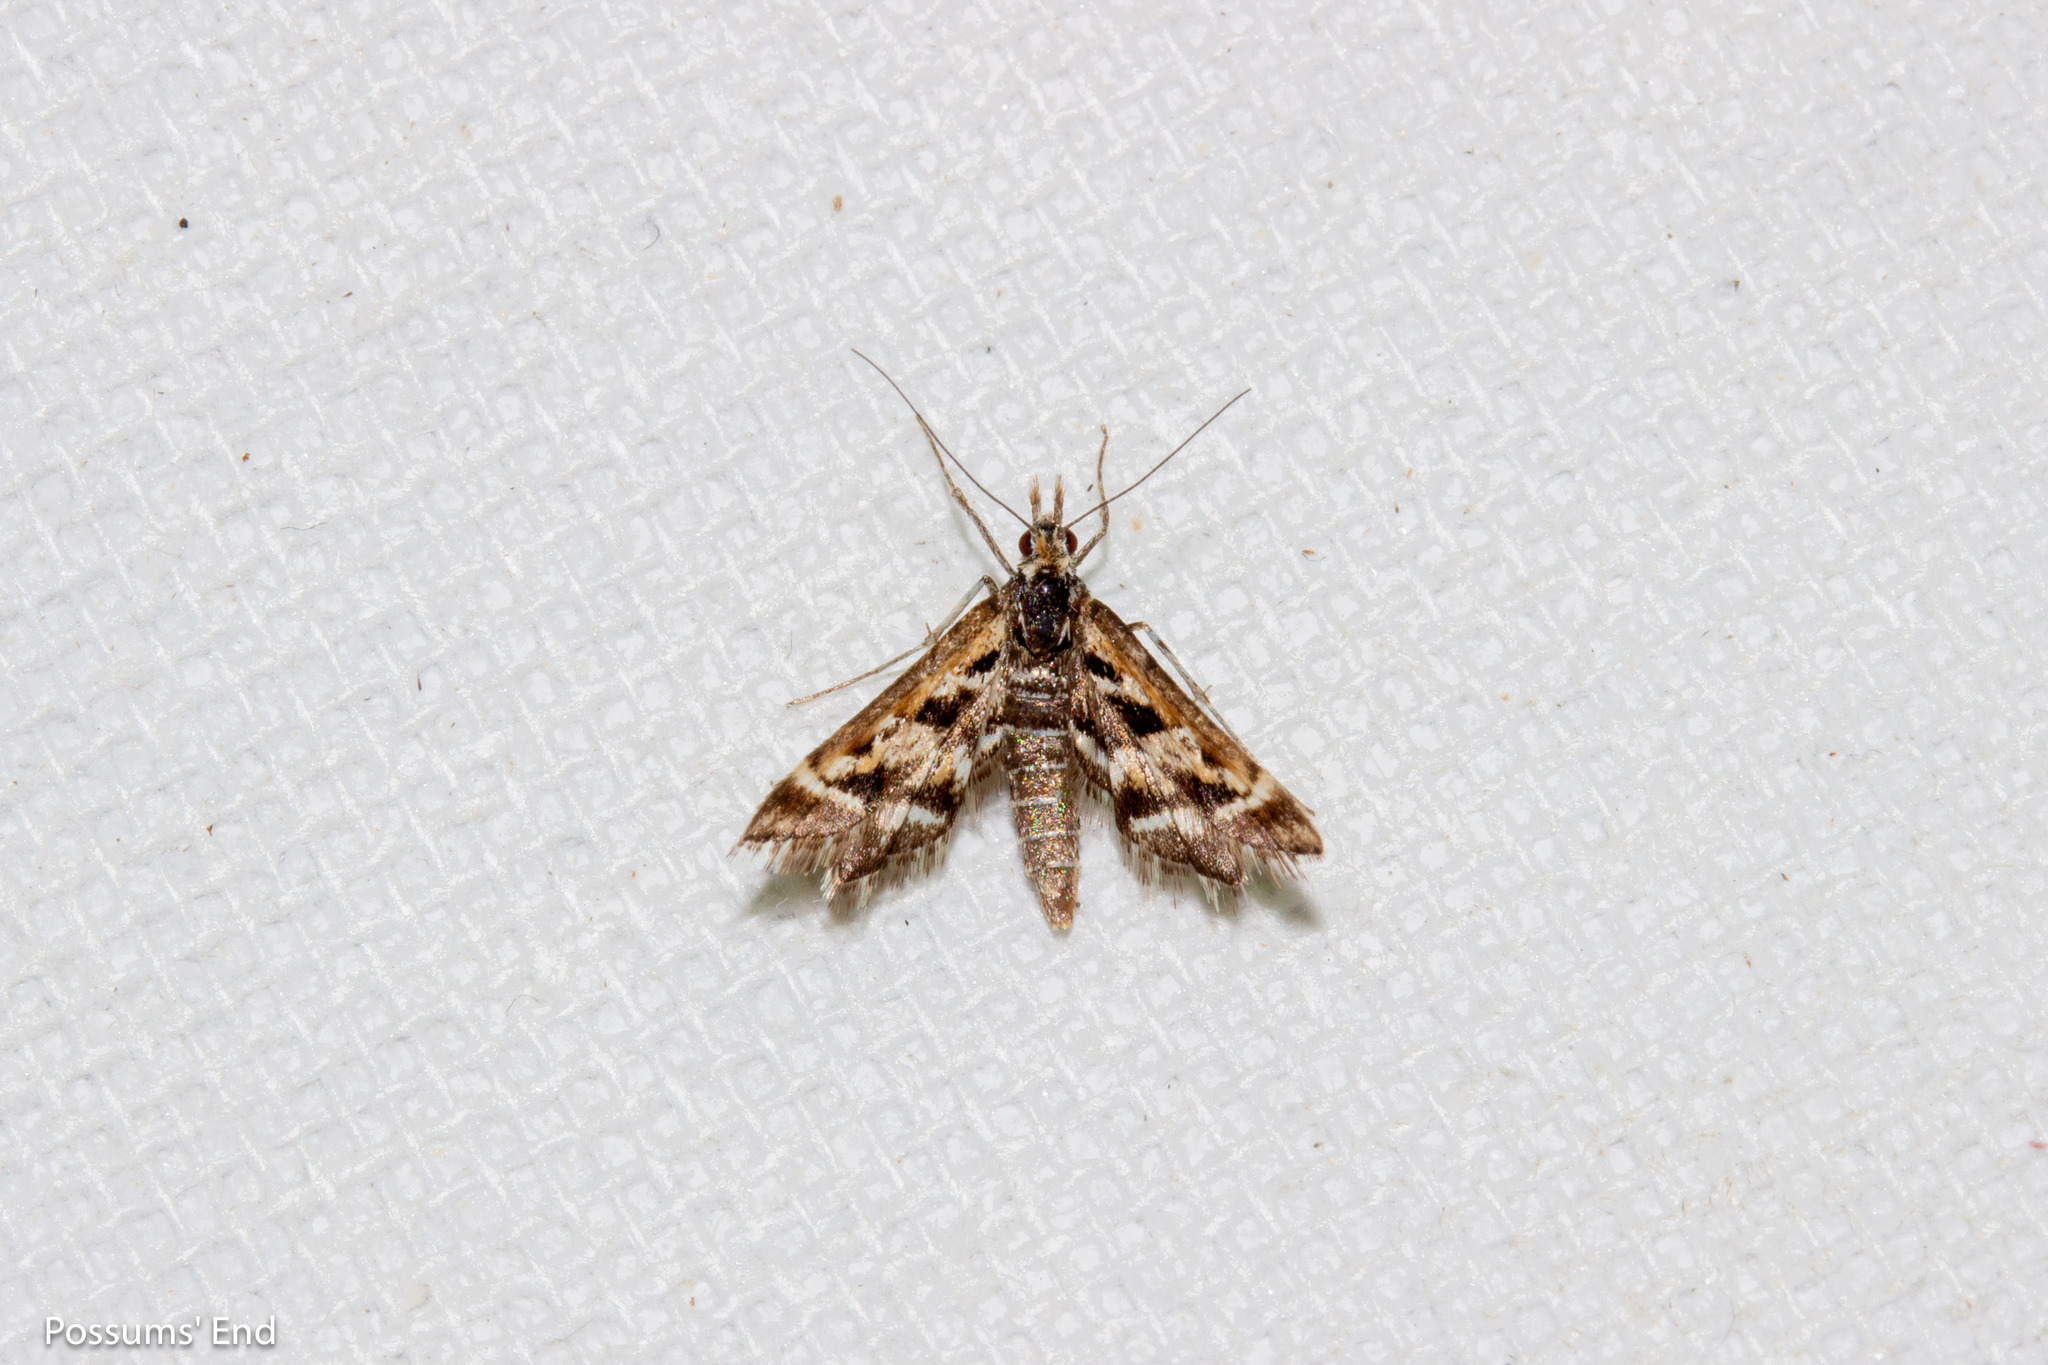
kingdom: Animalia
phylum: Arthropoda
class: Insecta
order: Lepidoptera
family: Crambidae
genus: Diasemia
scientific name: Diasemia grammalis
